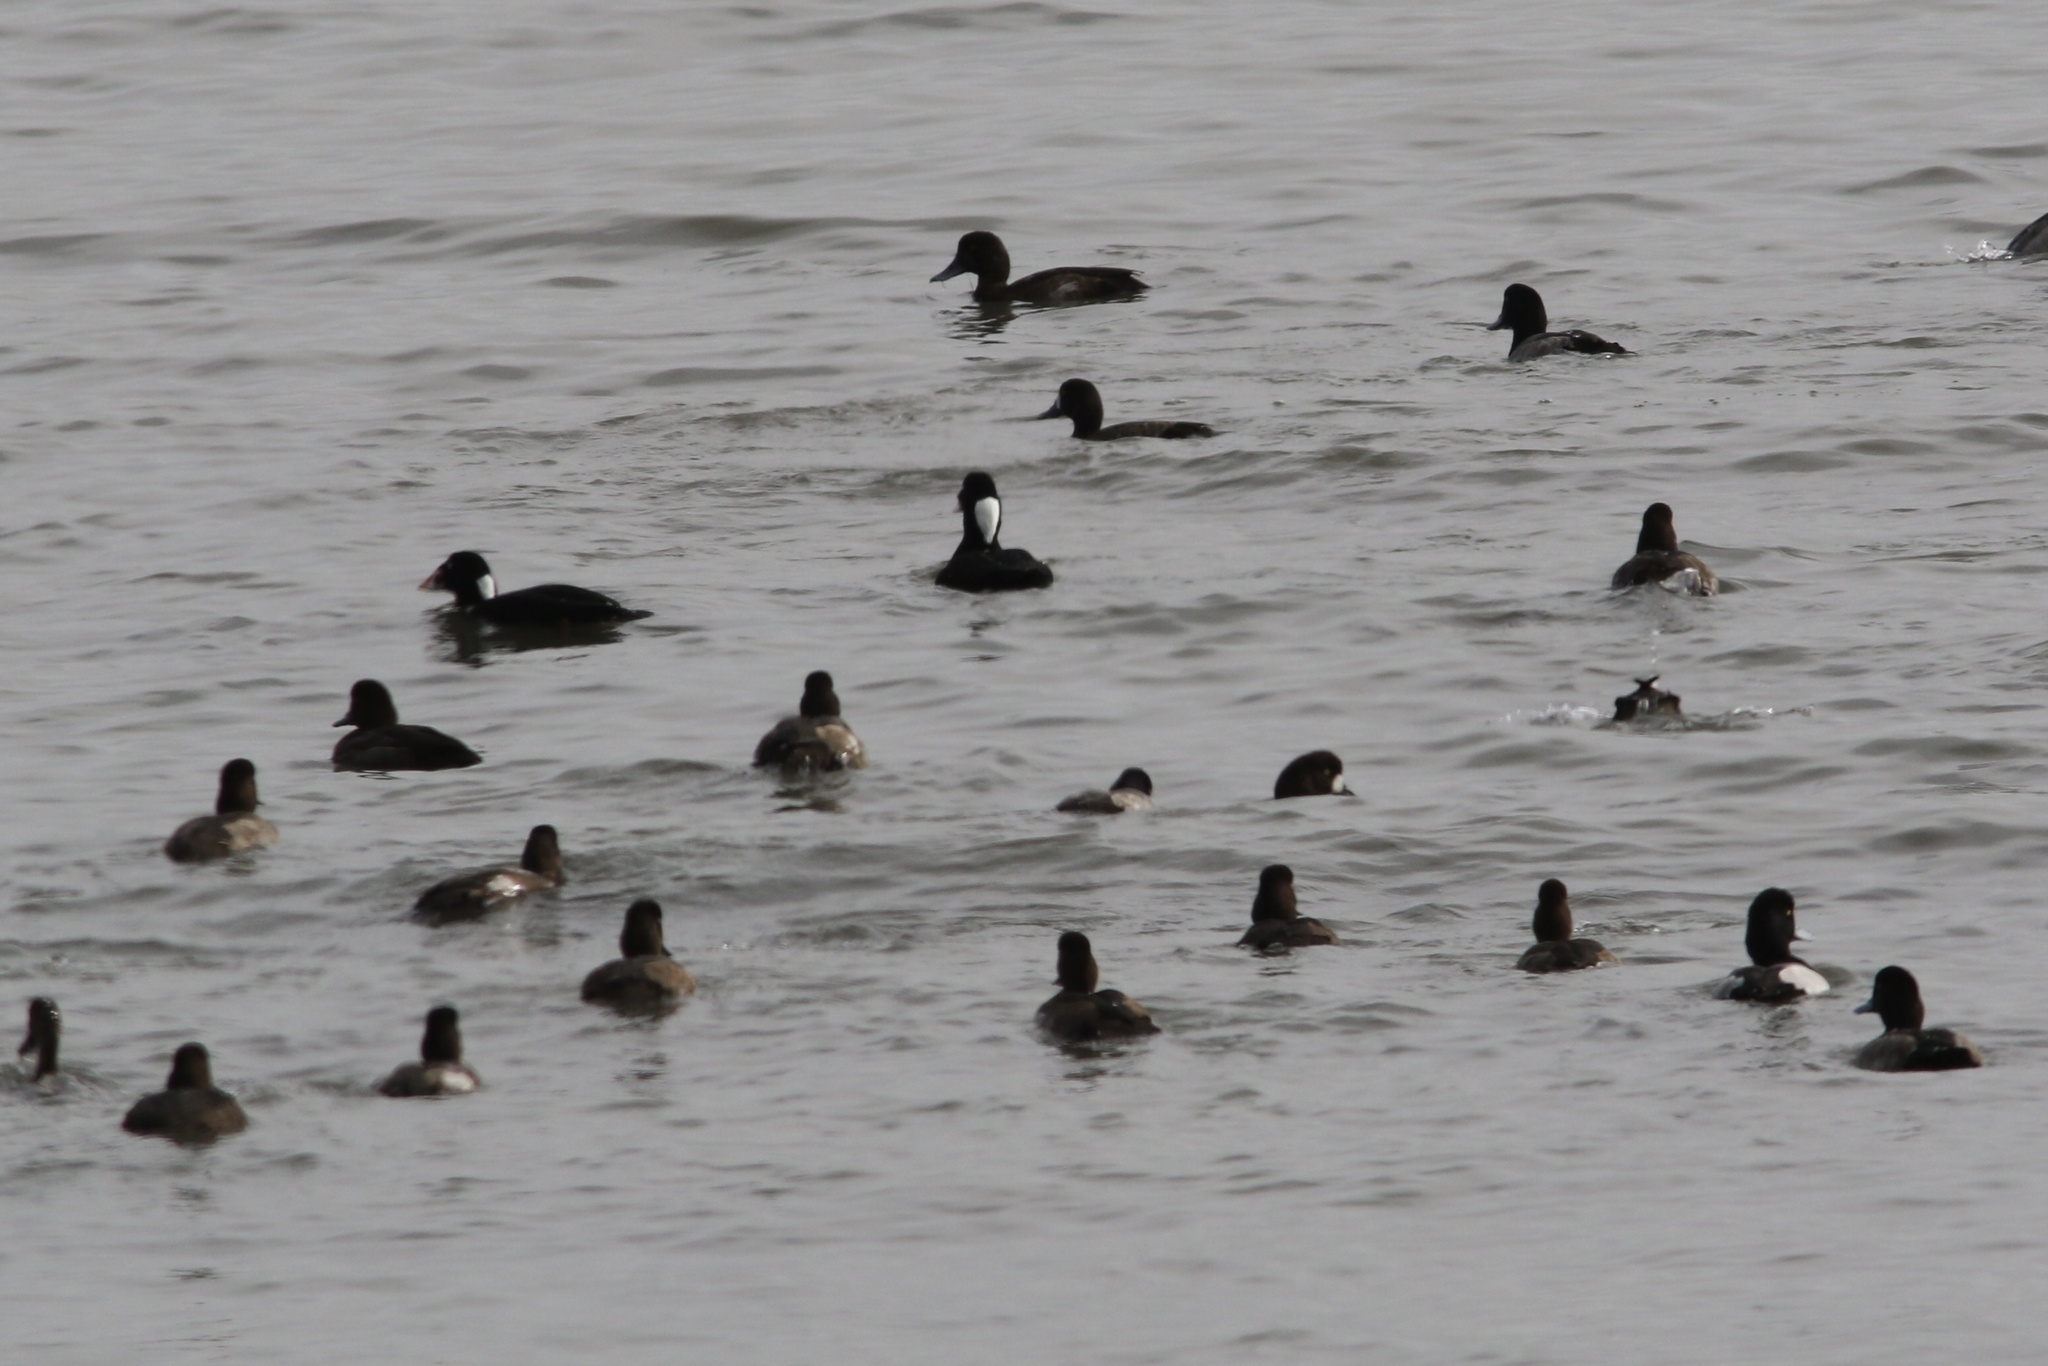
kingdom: Animalia
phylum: Chordata
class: Aves
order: Anseriformes
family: Anatidae
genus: Melanitta
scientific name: Melanitta perspicillata
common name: Surf scoter
